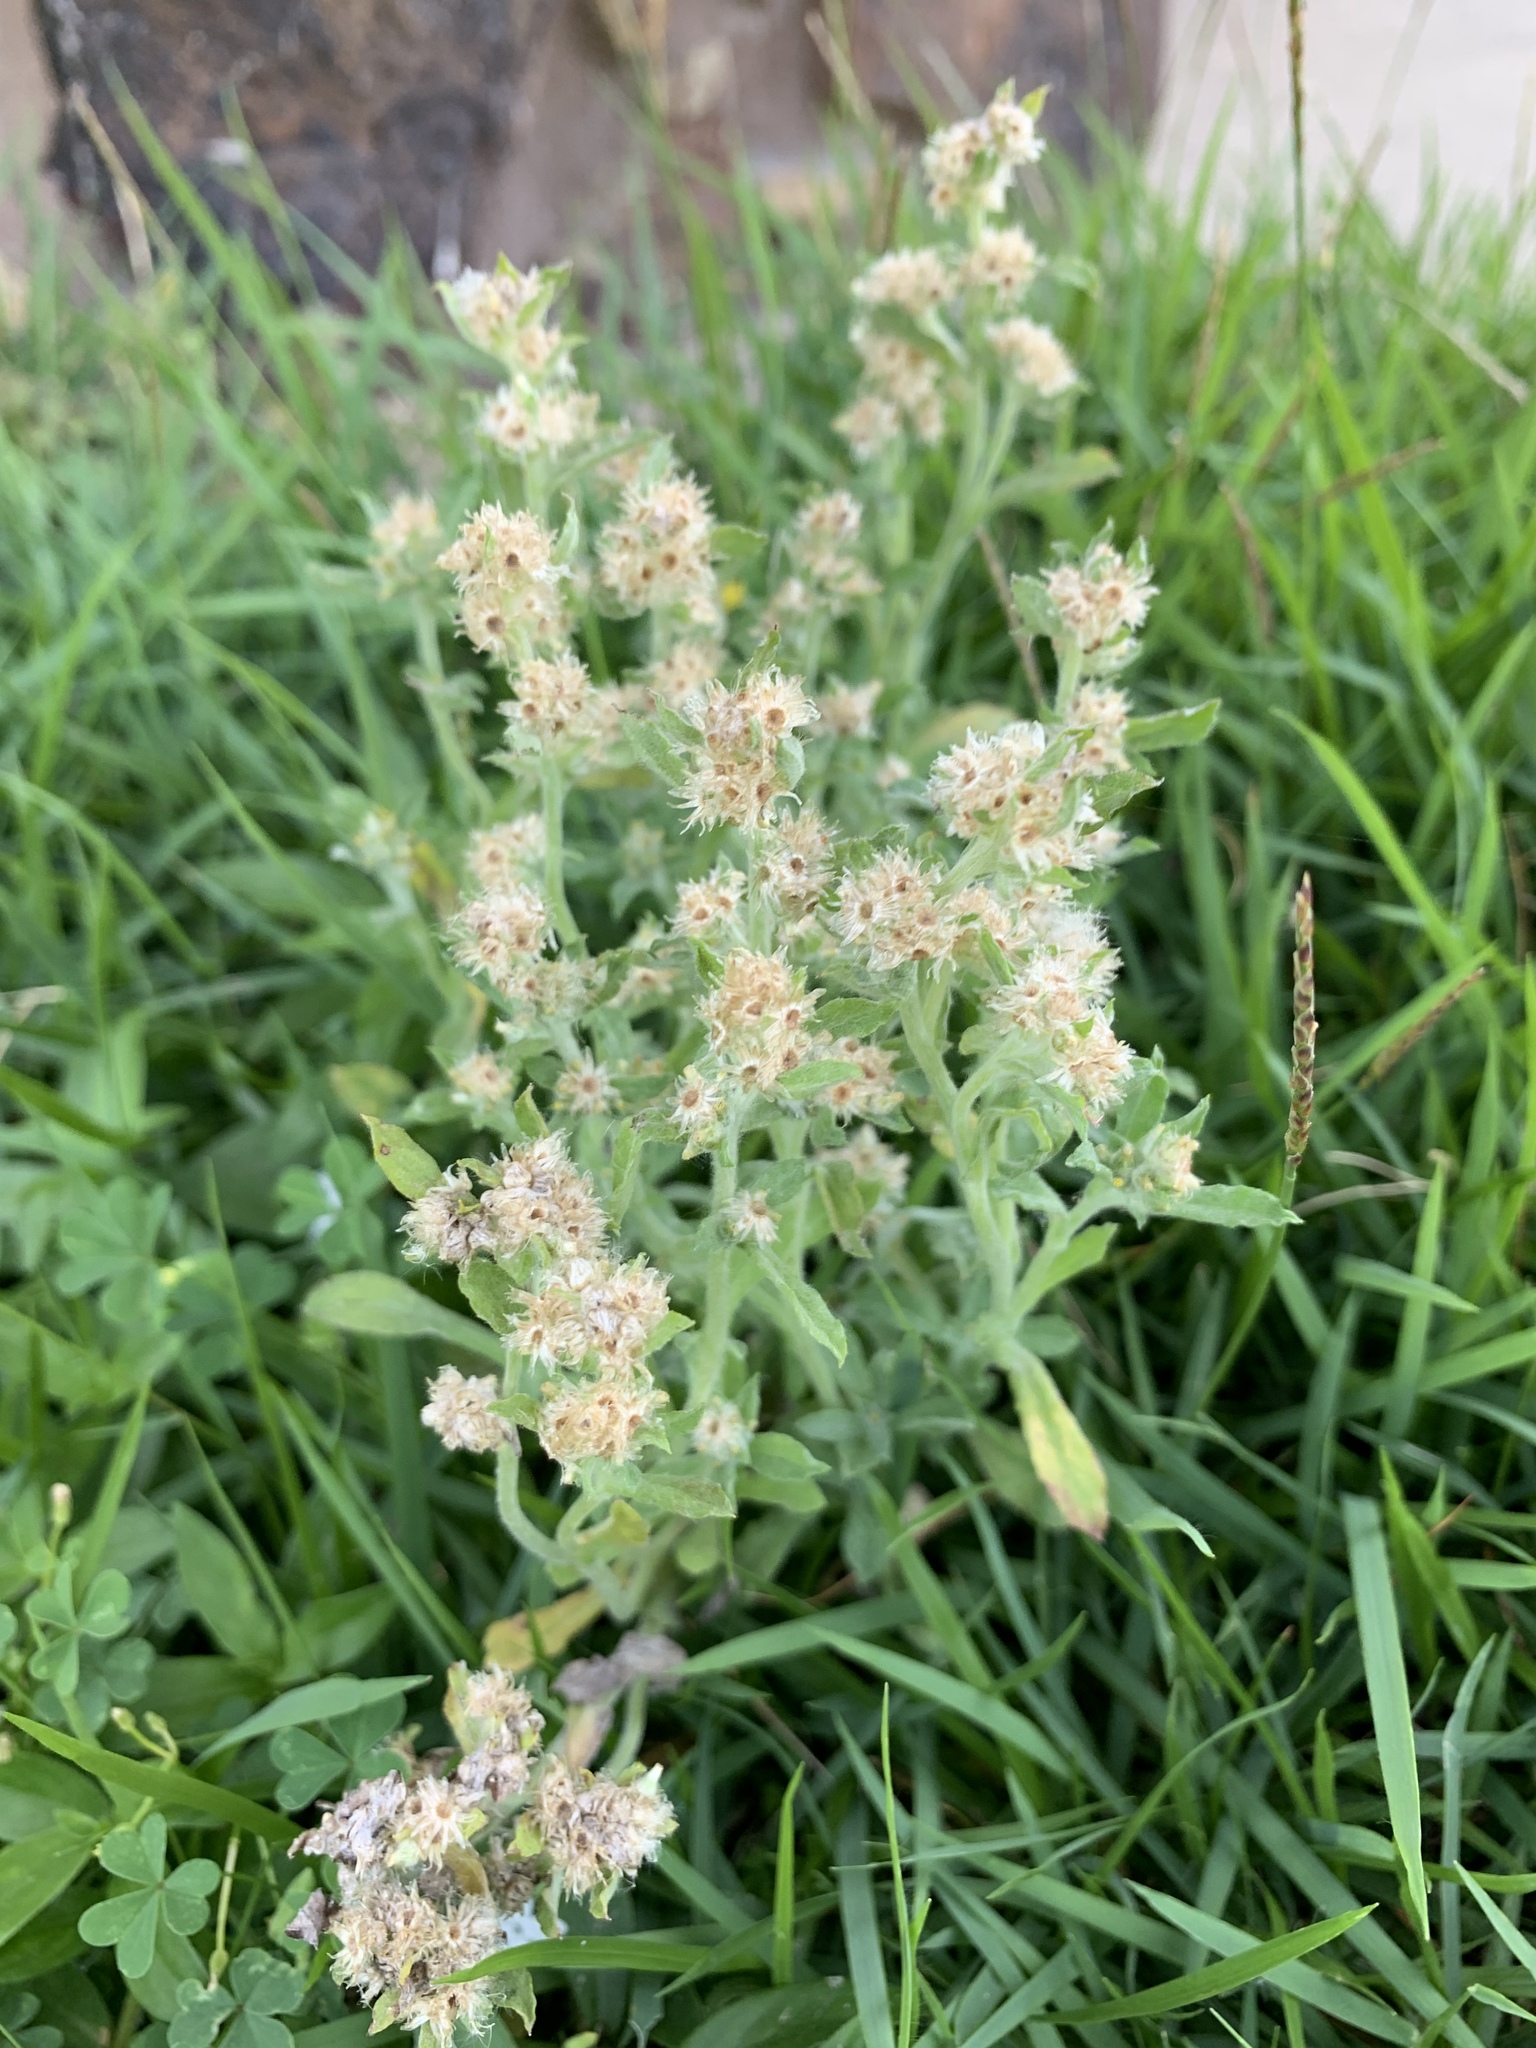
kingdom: Plantae
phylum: Tracheophyta
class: Magnoliopsida
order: Asterales
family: Asteraceae
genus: Gamochaeta
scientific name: Gamochaeta pensylvanica
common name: Pennsylvania everlasting
